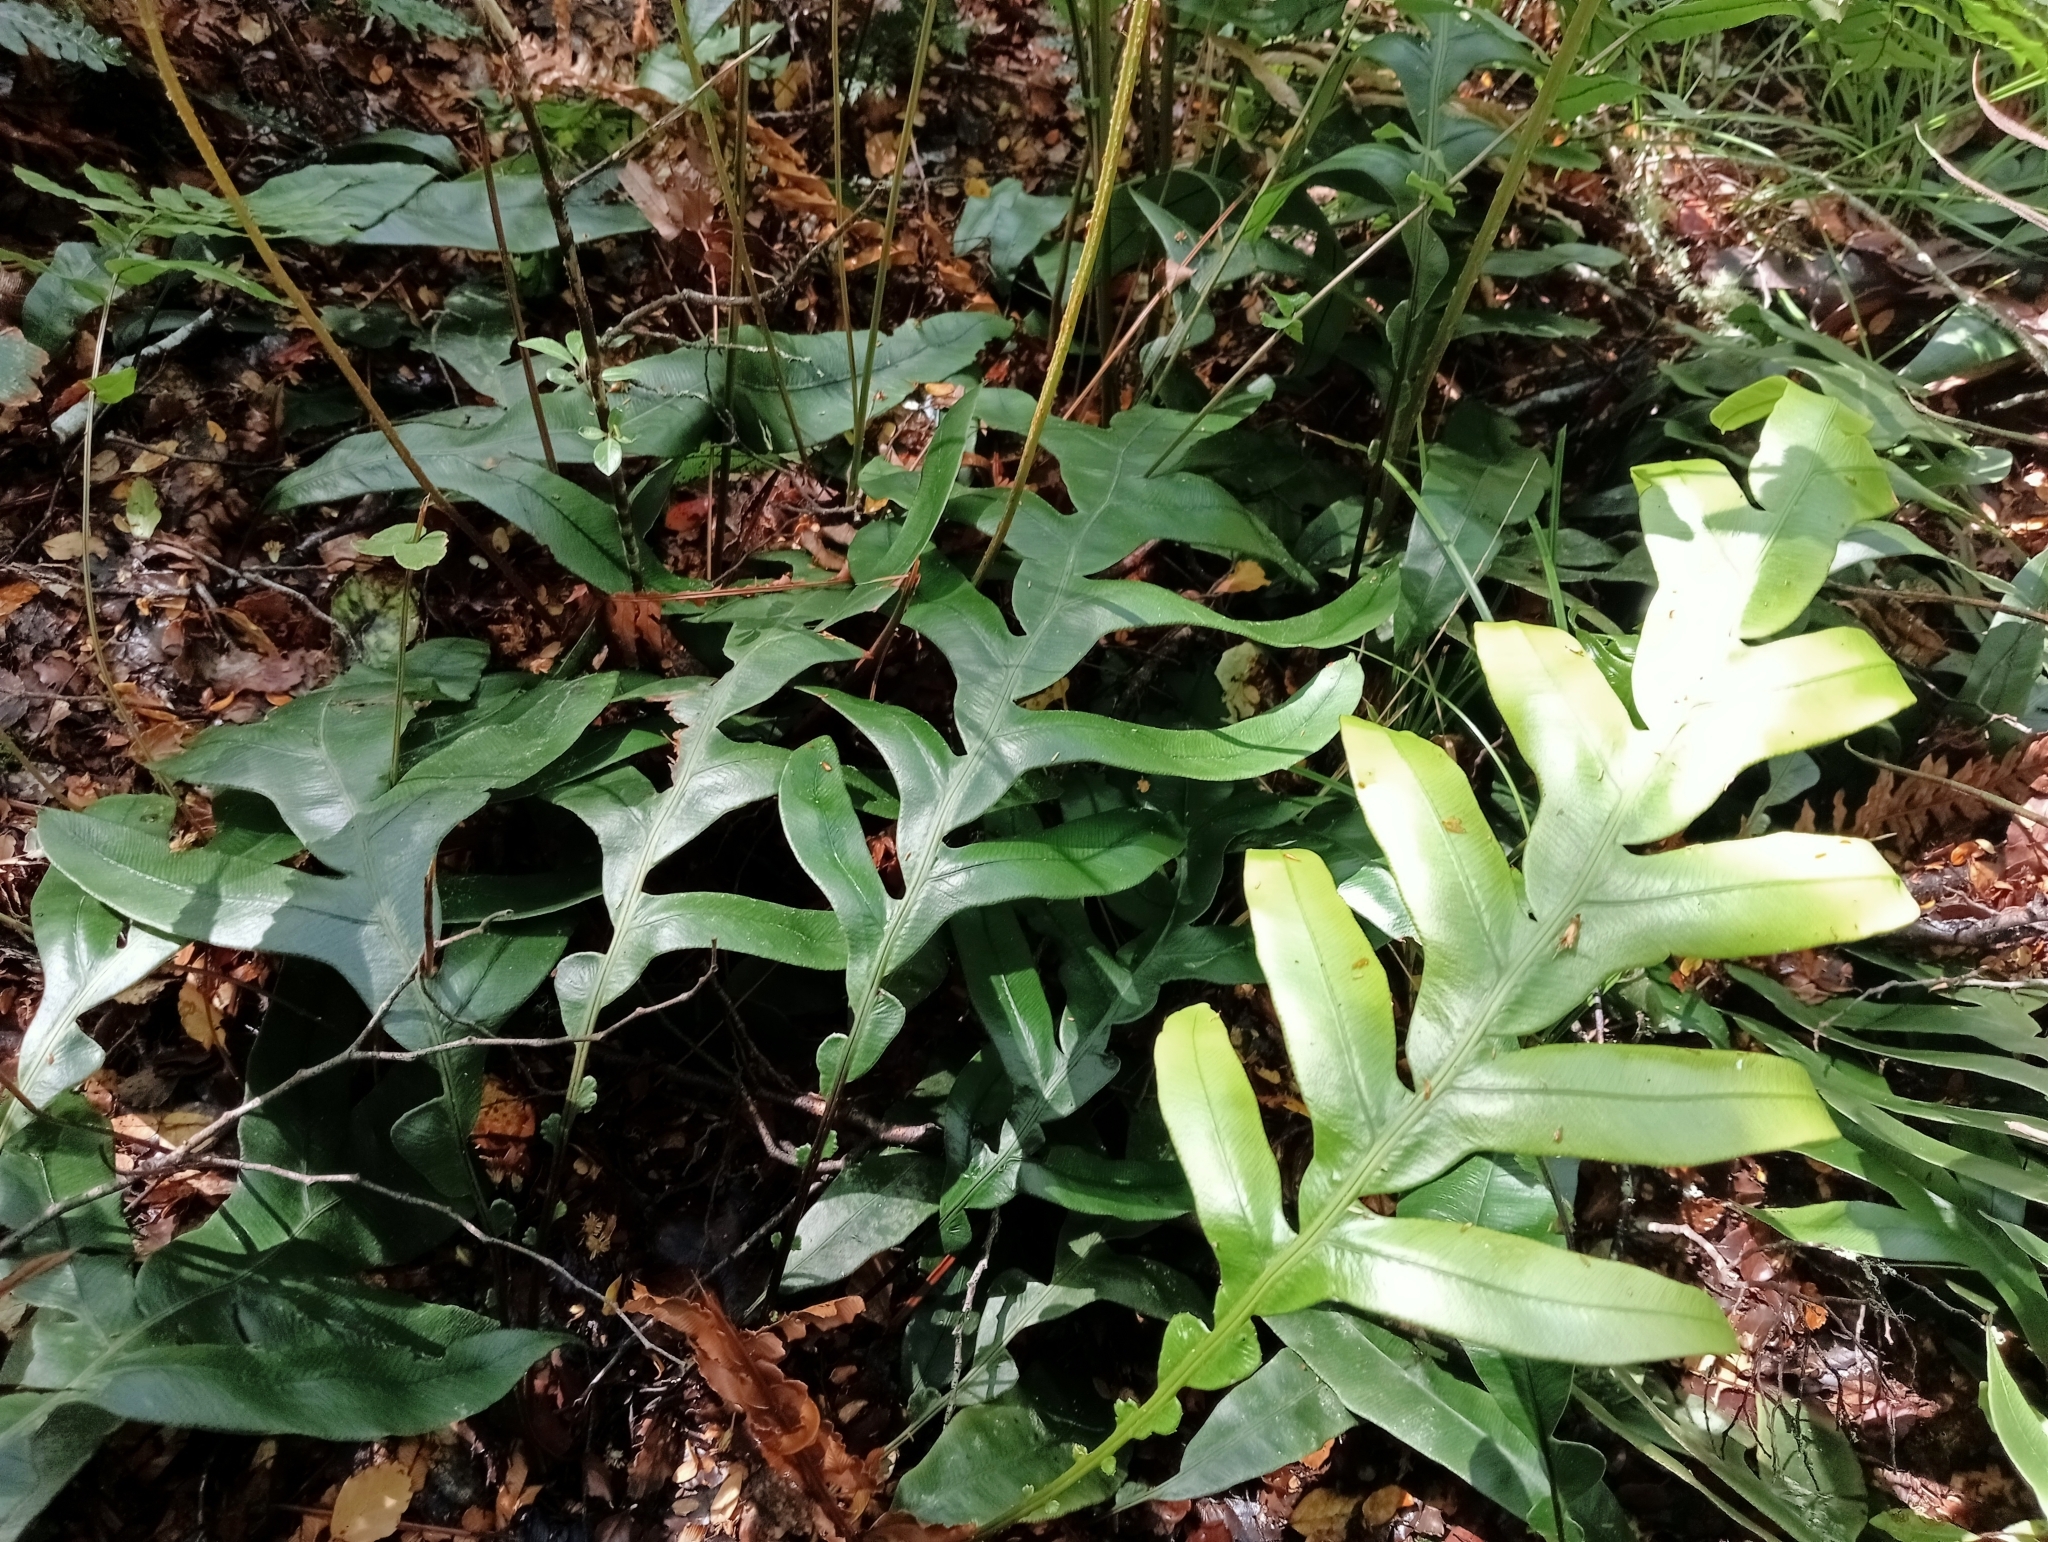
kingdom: Plantae
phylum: Tracheophyta
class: Polypodiopsida
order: Polypodiales
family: Blechnaceae
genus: Austroblechnum
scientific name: Austroblechnum colensoi
